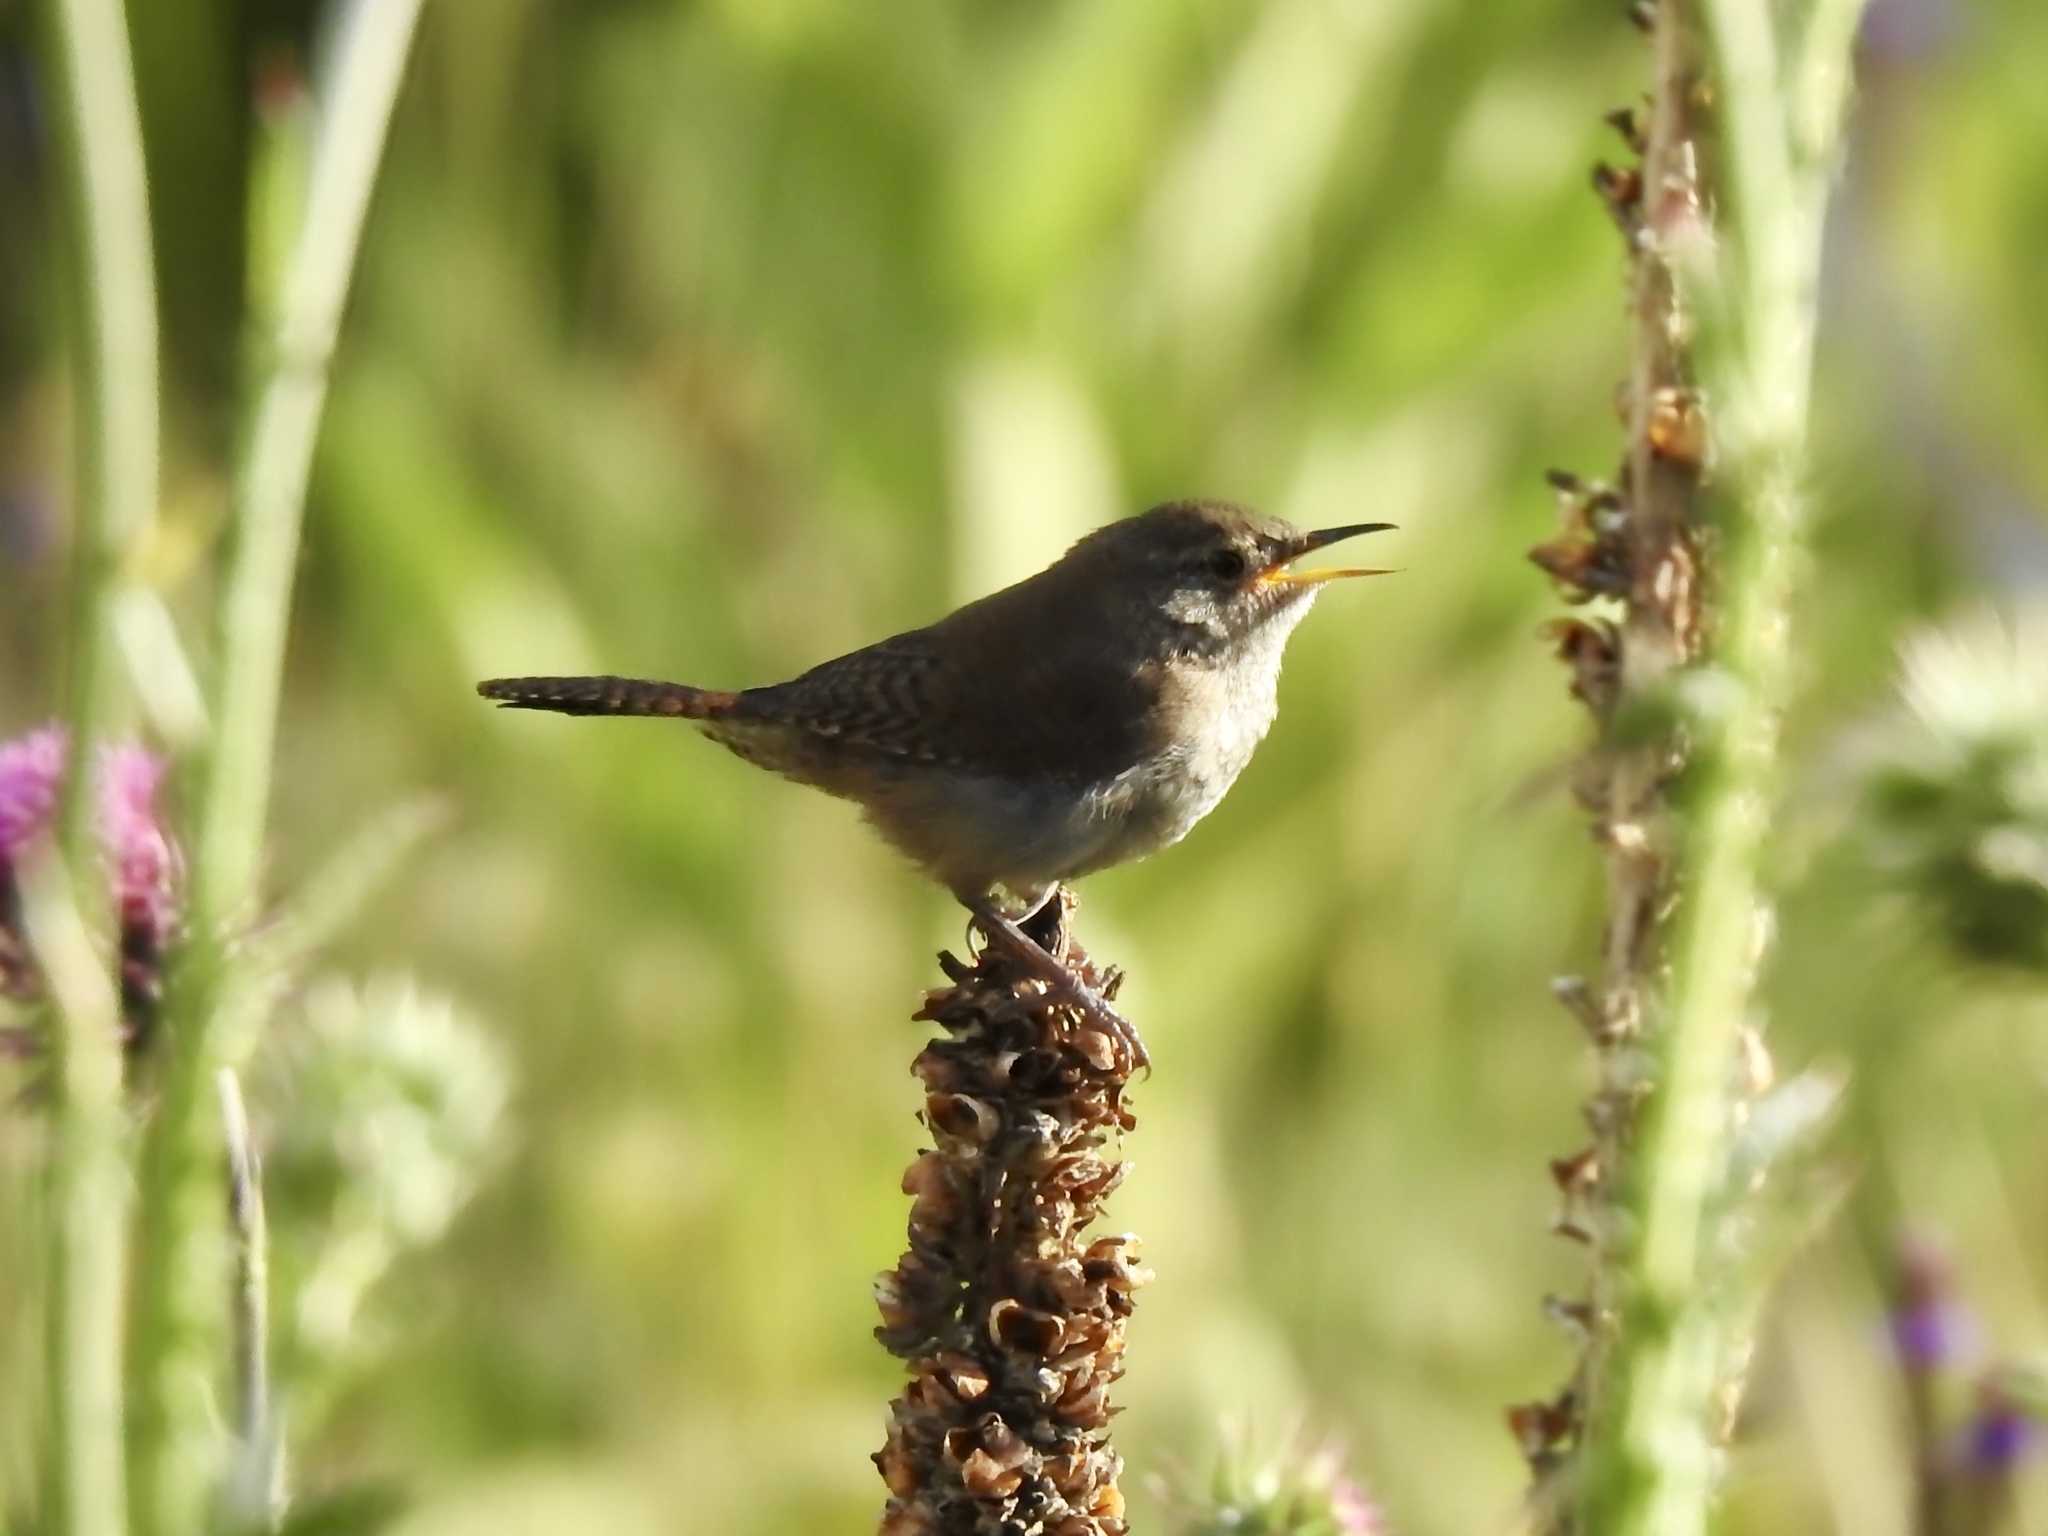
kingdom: Animalia
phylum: Chordata
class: Aves
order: Passeriformes
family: Troglodytidae
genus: Troglodytes
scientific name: Troglodytes aedon
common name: House wren
